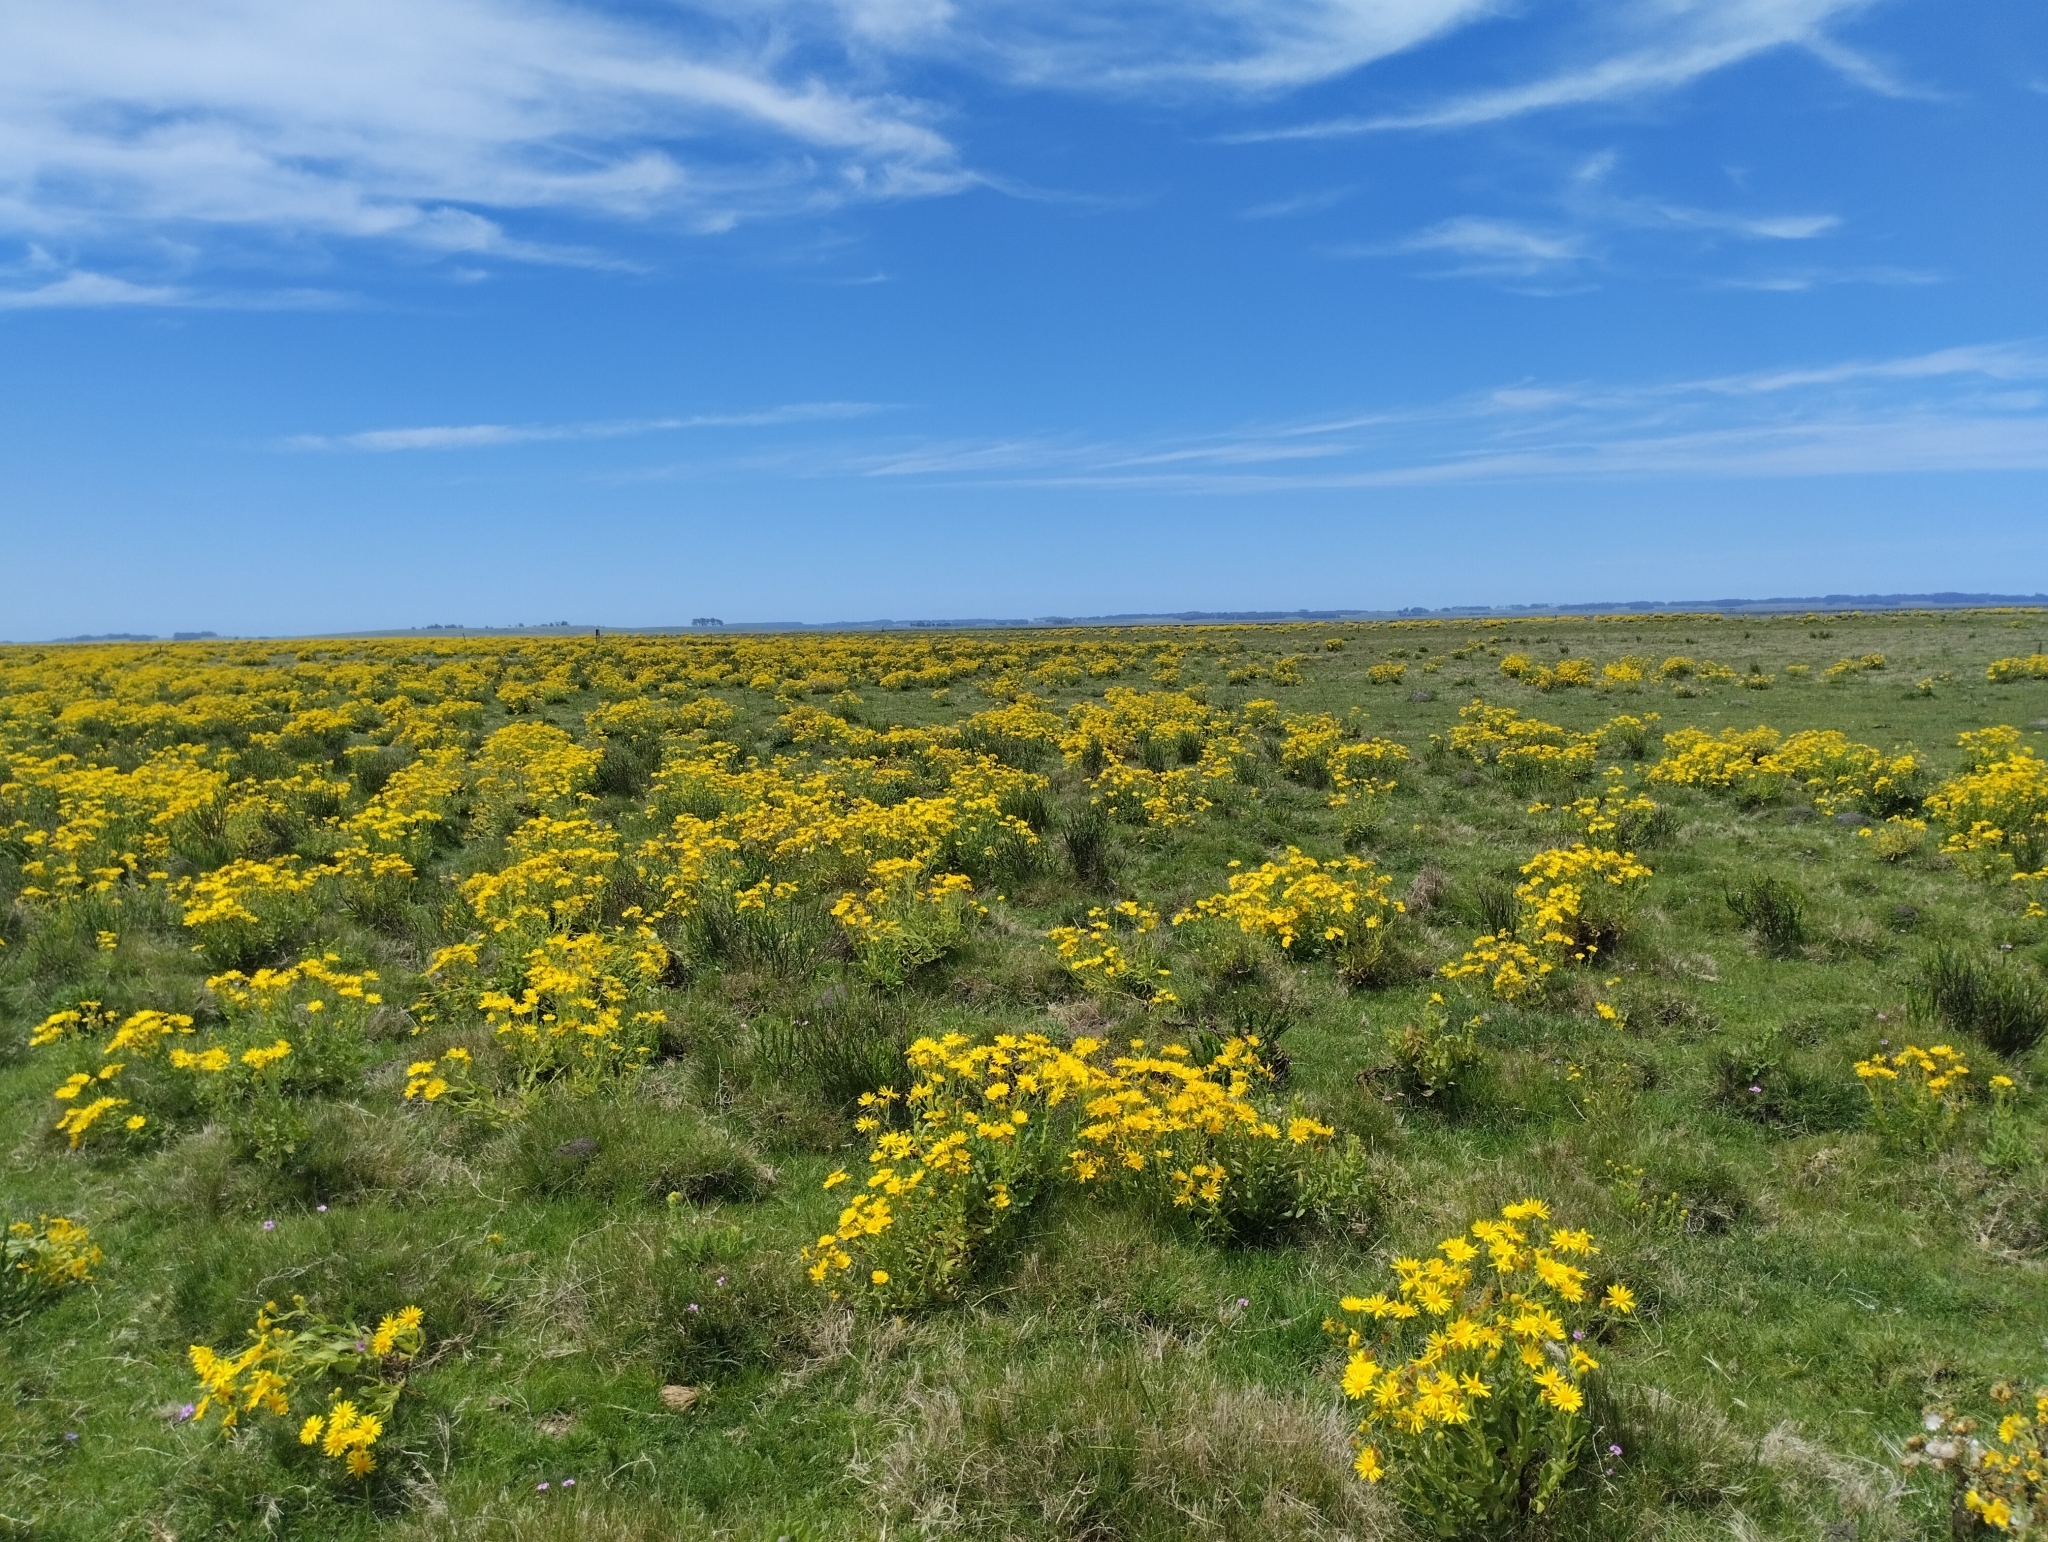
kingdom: Plantae
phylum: Tracheophyta
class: Magnoliopsida
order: Asterales
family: Asteraceae
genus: Senecio
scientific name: Senecio selloi
